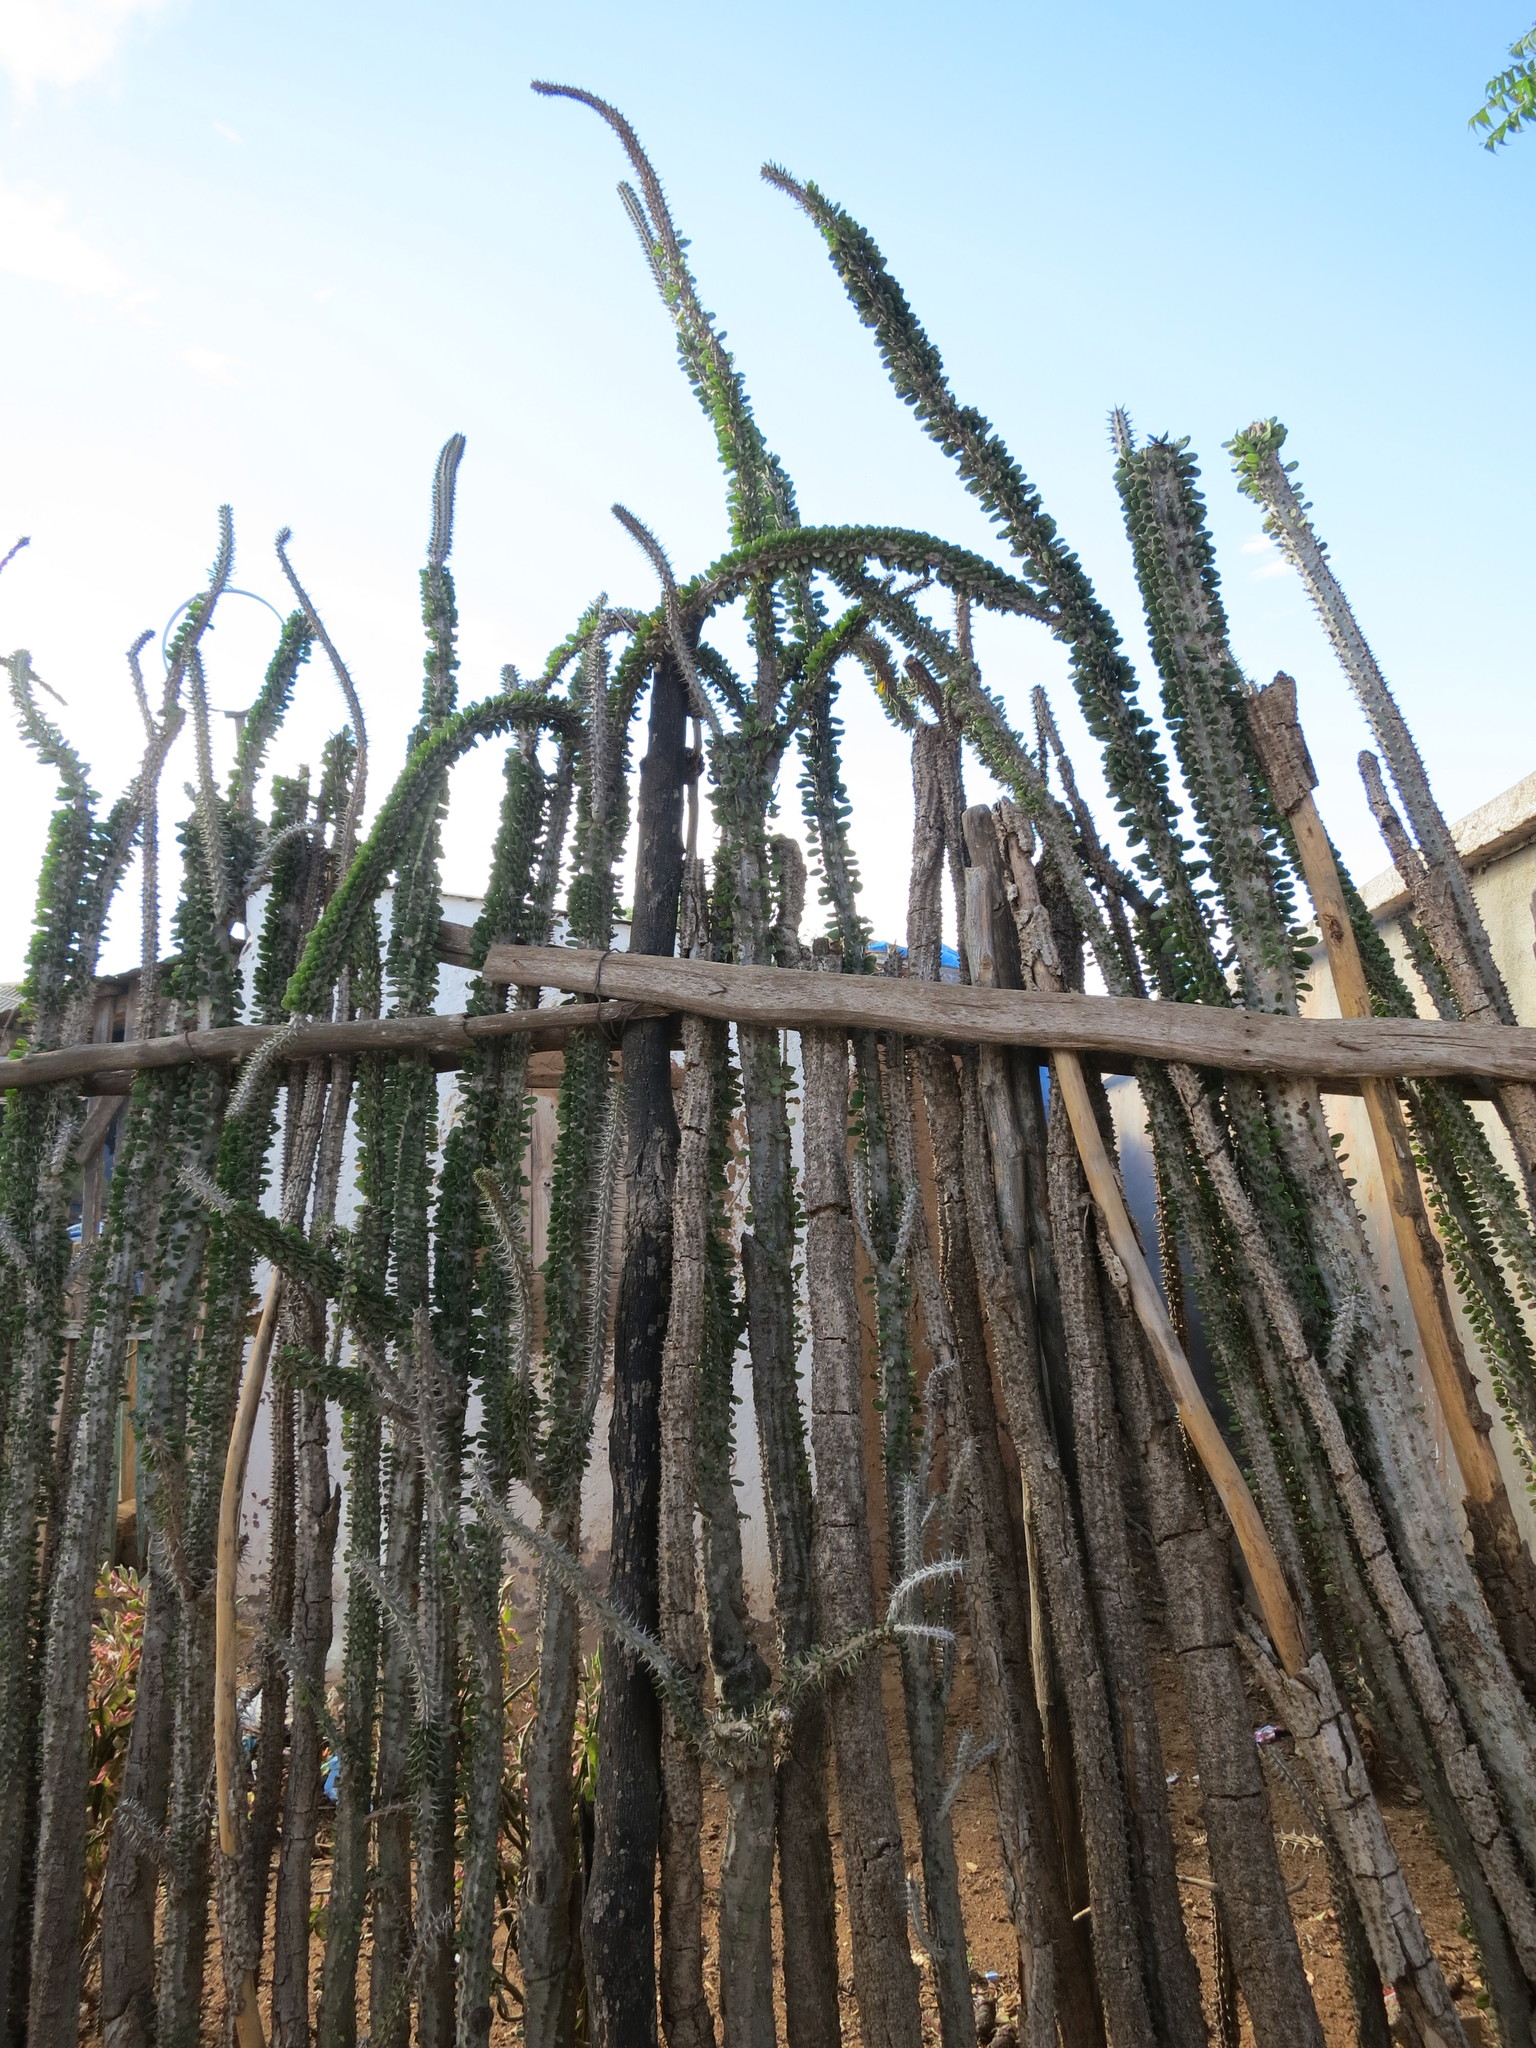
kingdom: Plantae
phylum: Tracheophyta
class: Magnoliopsida
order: Caryophyllales
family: Didiereaceae
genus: Alluaudia
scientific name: Alluaudia procera
